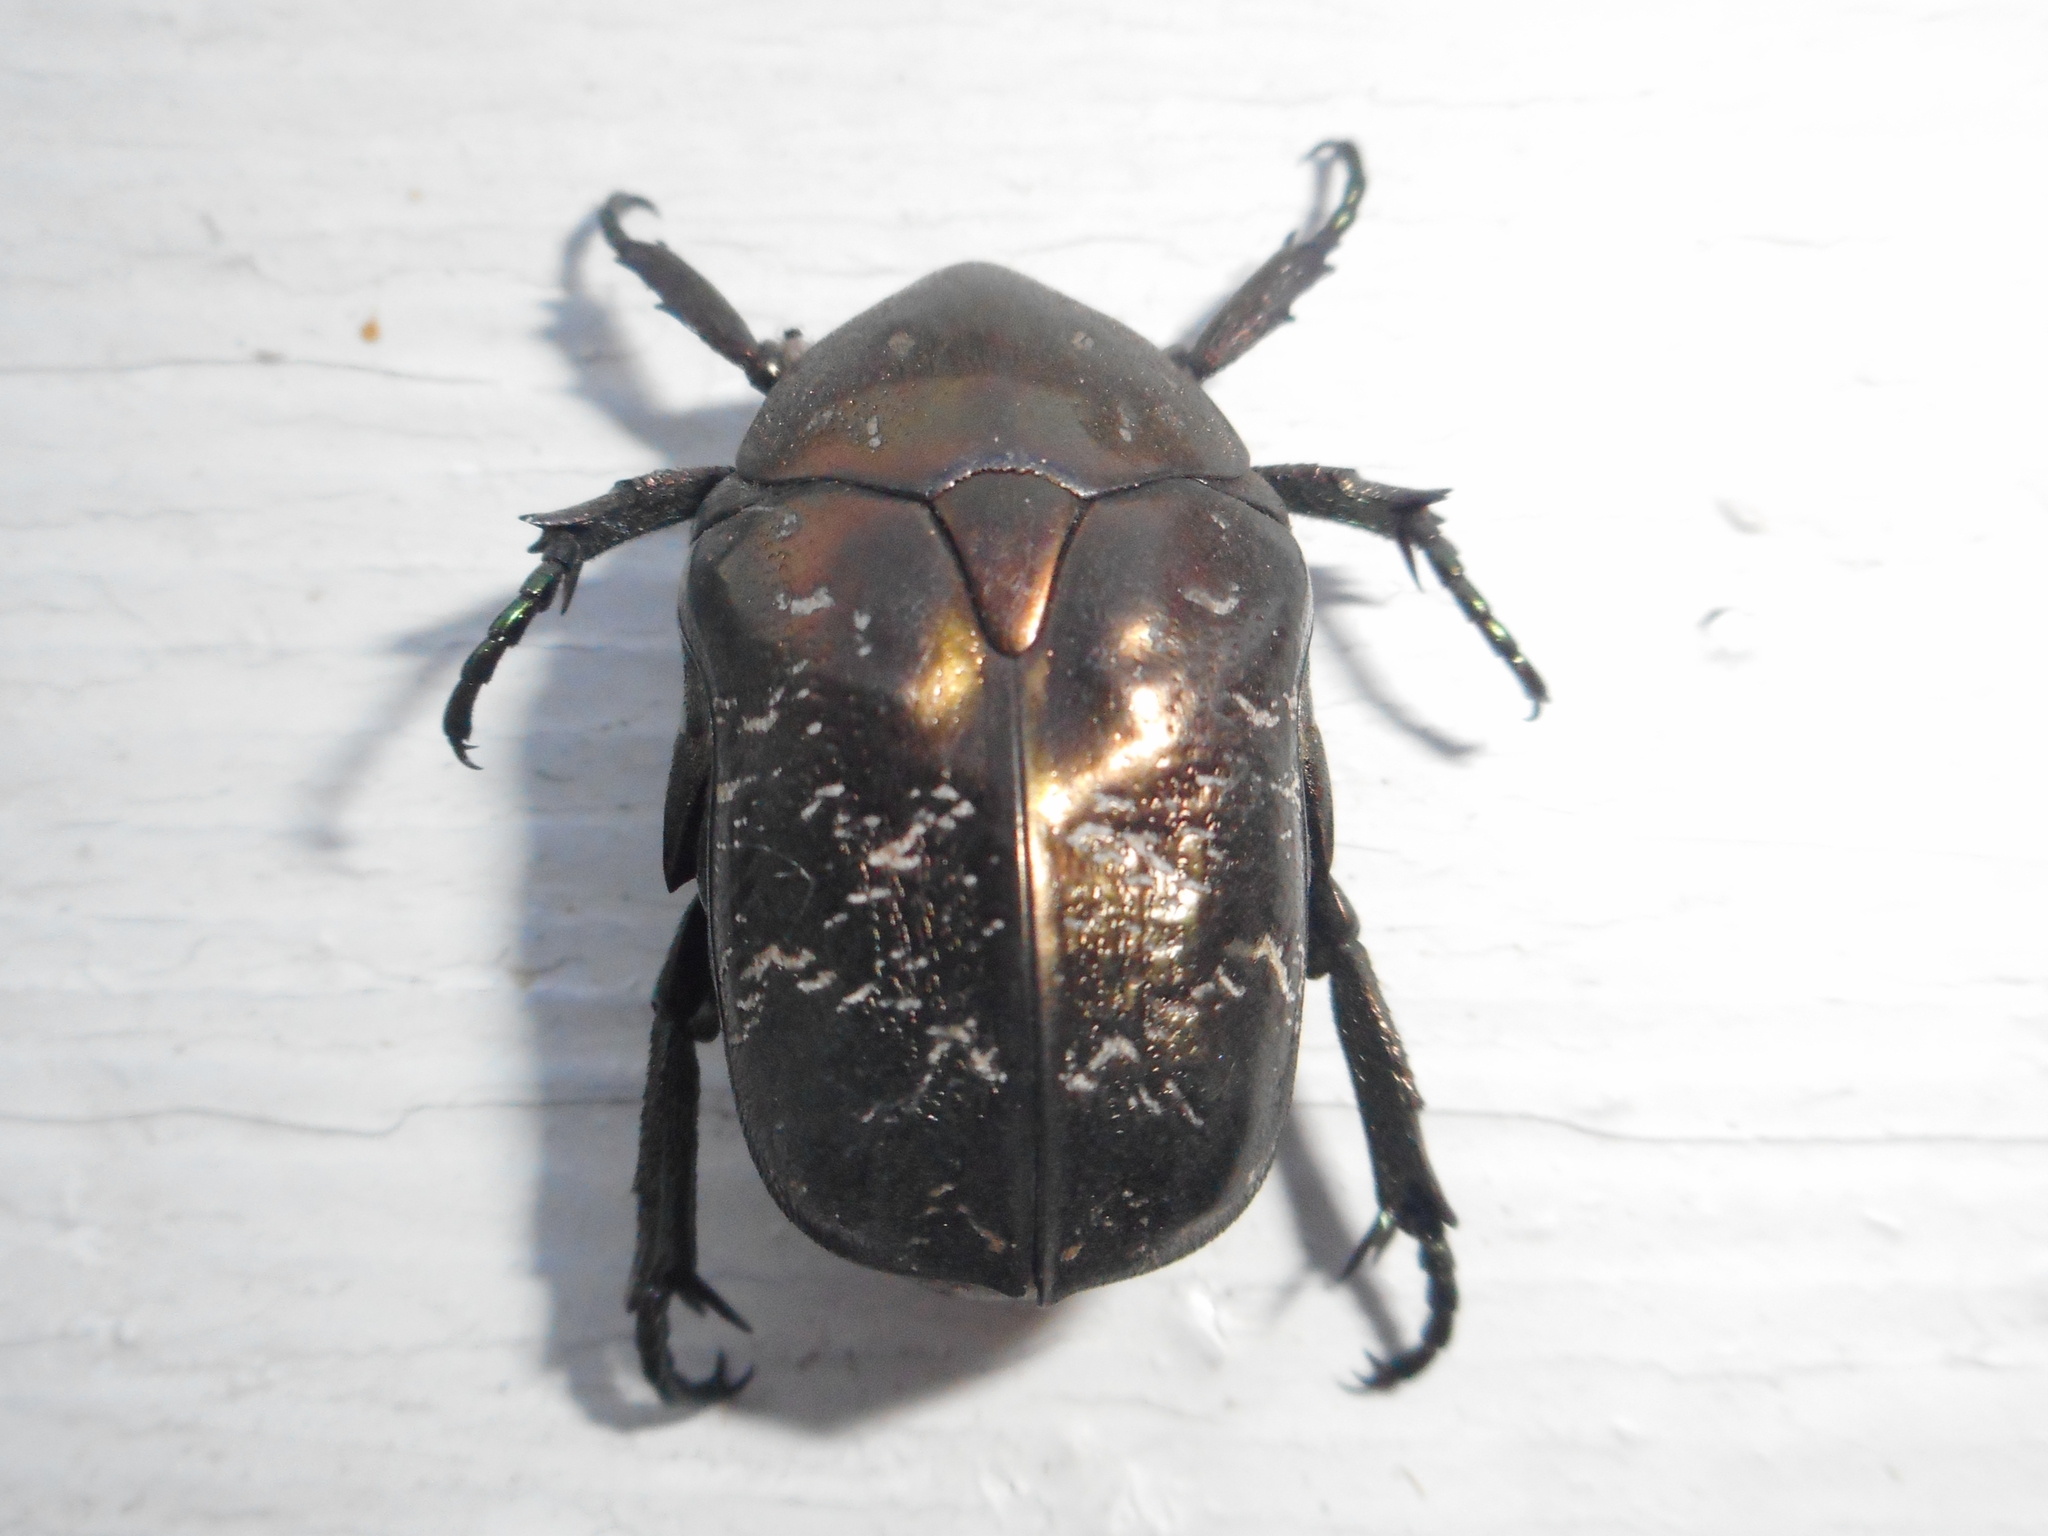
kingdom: Animalia
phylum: Arthropoda
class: Insecta
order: Coleoptera
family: Scarabaeidae
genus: Protaetia
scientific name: Protaetia marmorata
